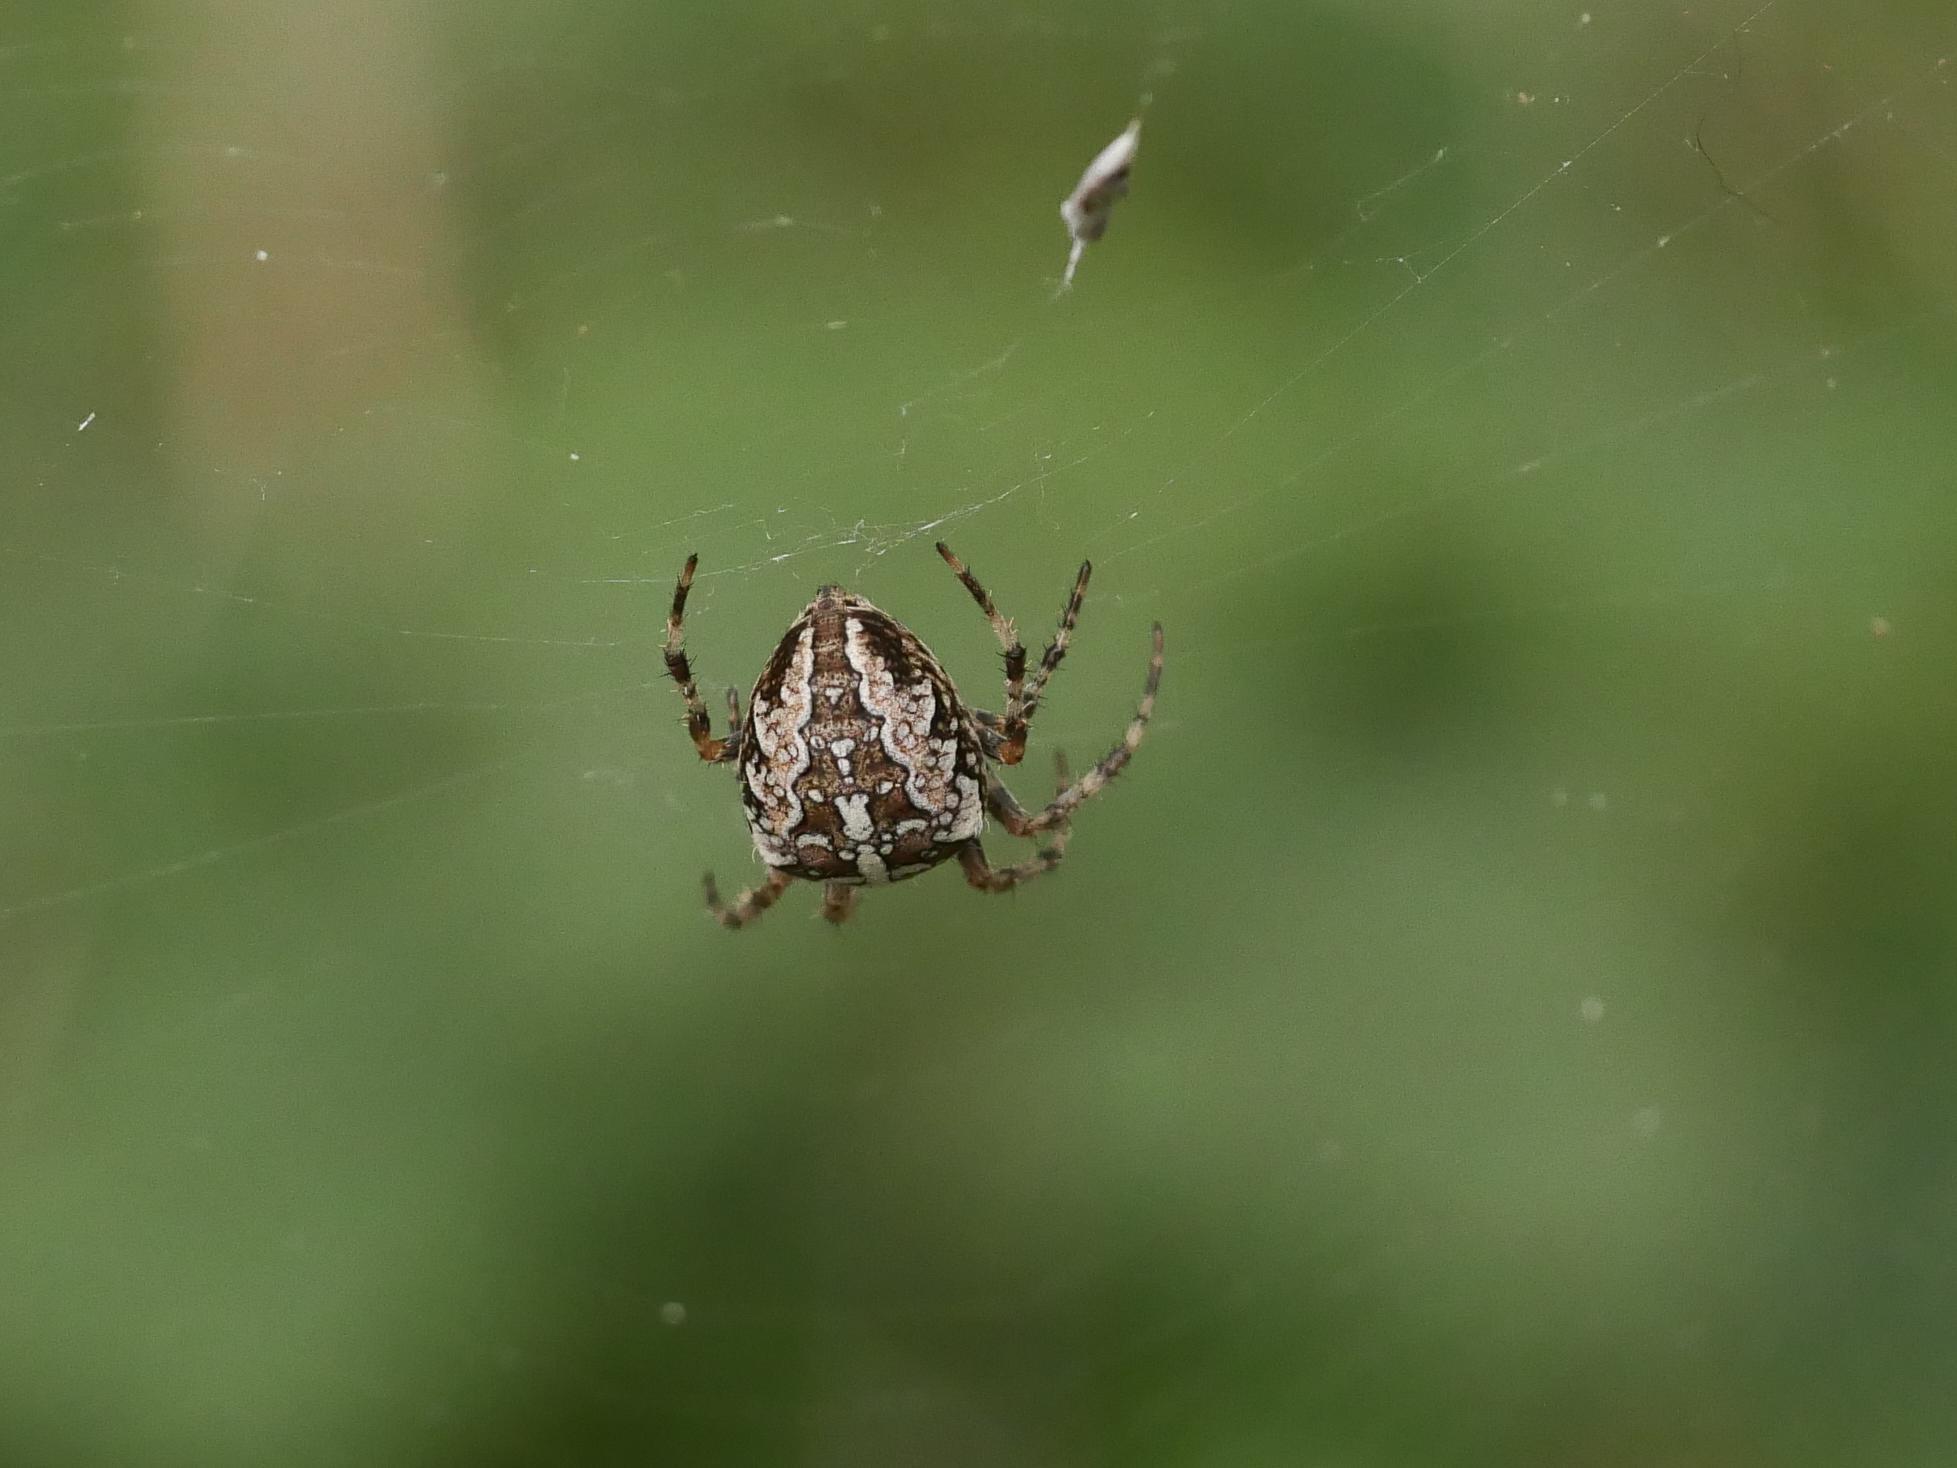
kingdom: Animalia
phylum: Arthropoda
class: Arachnida
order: Araneae
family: Araneidae
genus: Araneus
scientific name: Araneus diadematus
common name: Cross orbweaver
